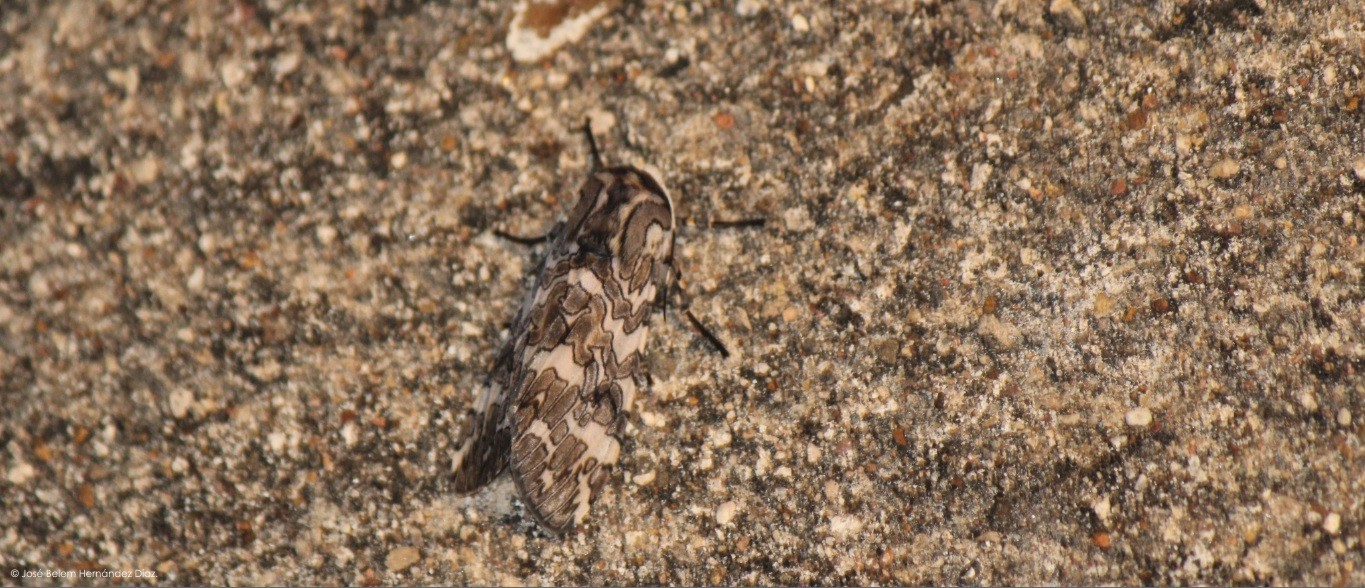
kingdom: Animalia
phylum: Arthropoda
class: Insecta
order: Lepidoptera
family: Erebidae
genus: Hypercompe
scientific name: Hypercompe suffusa
